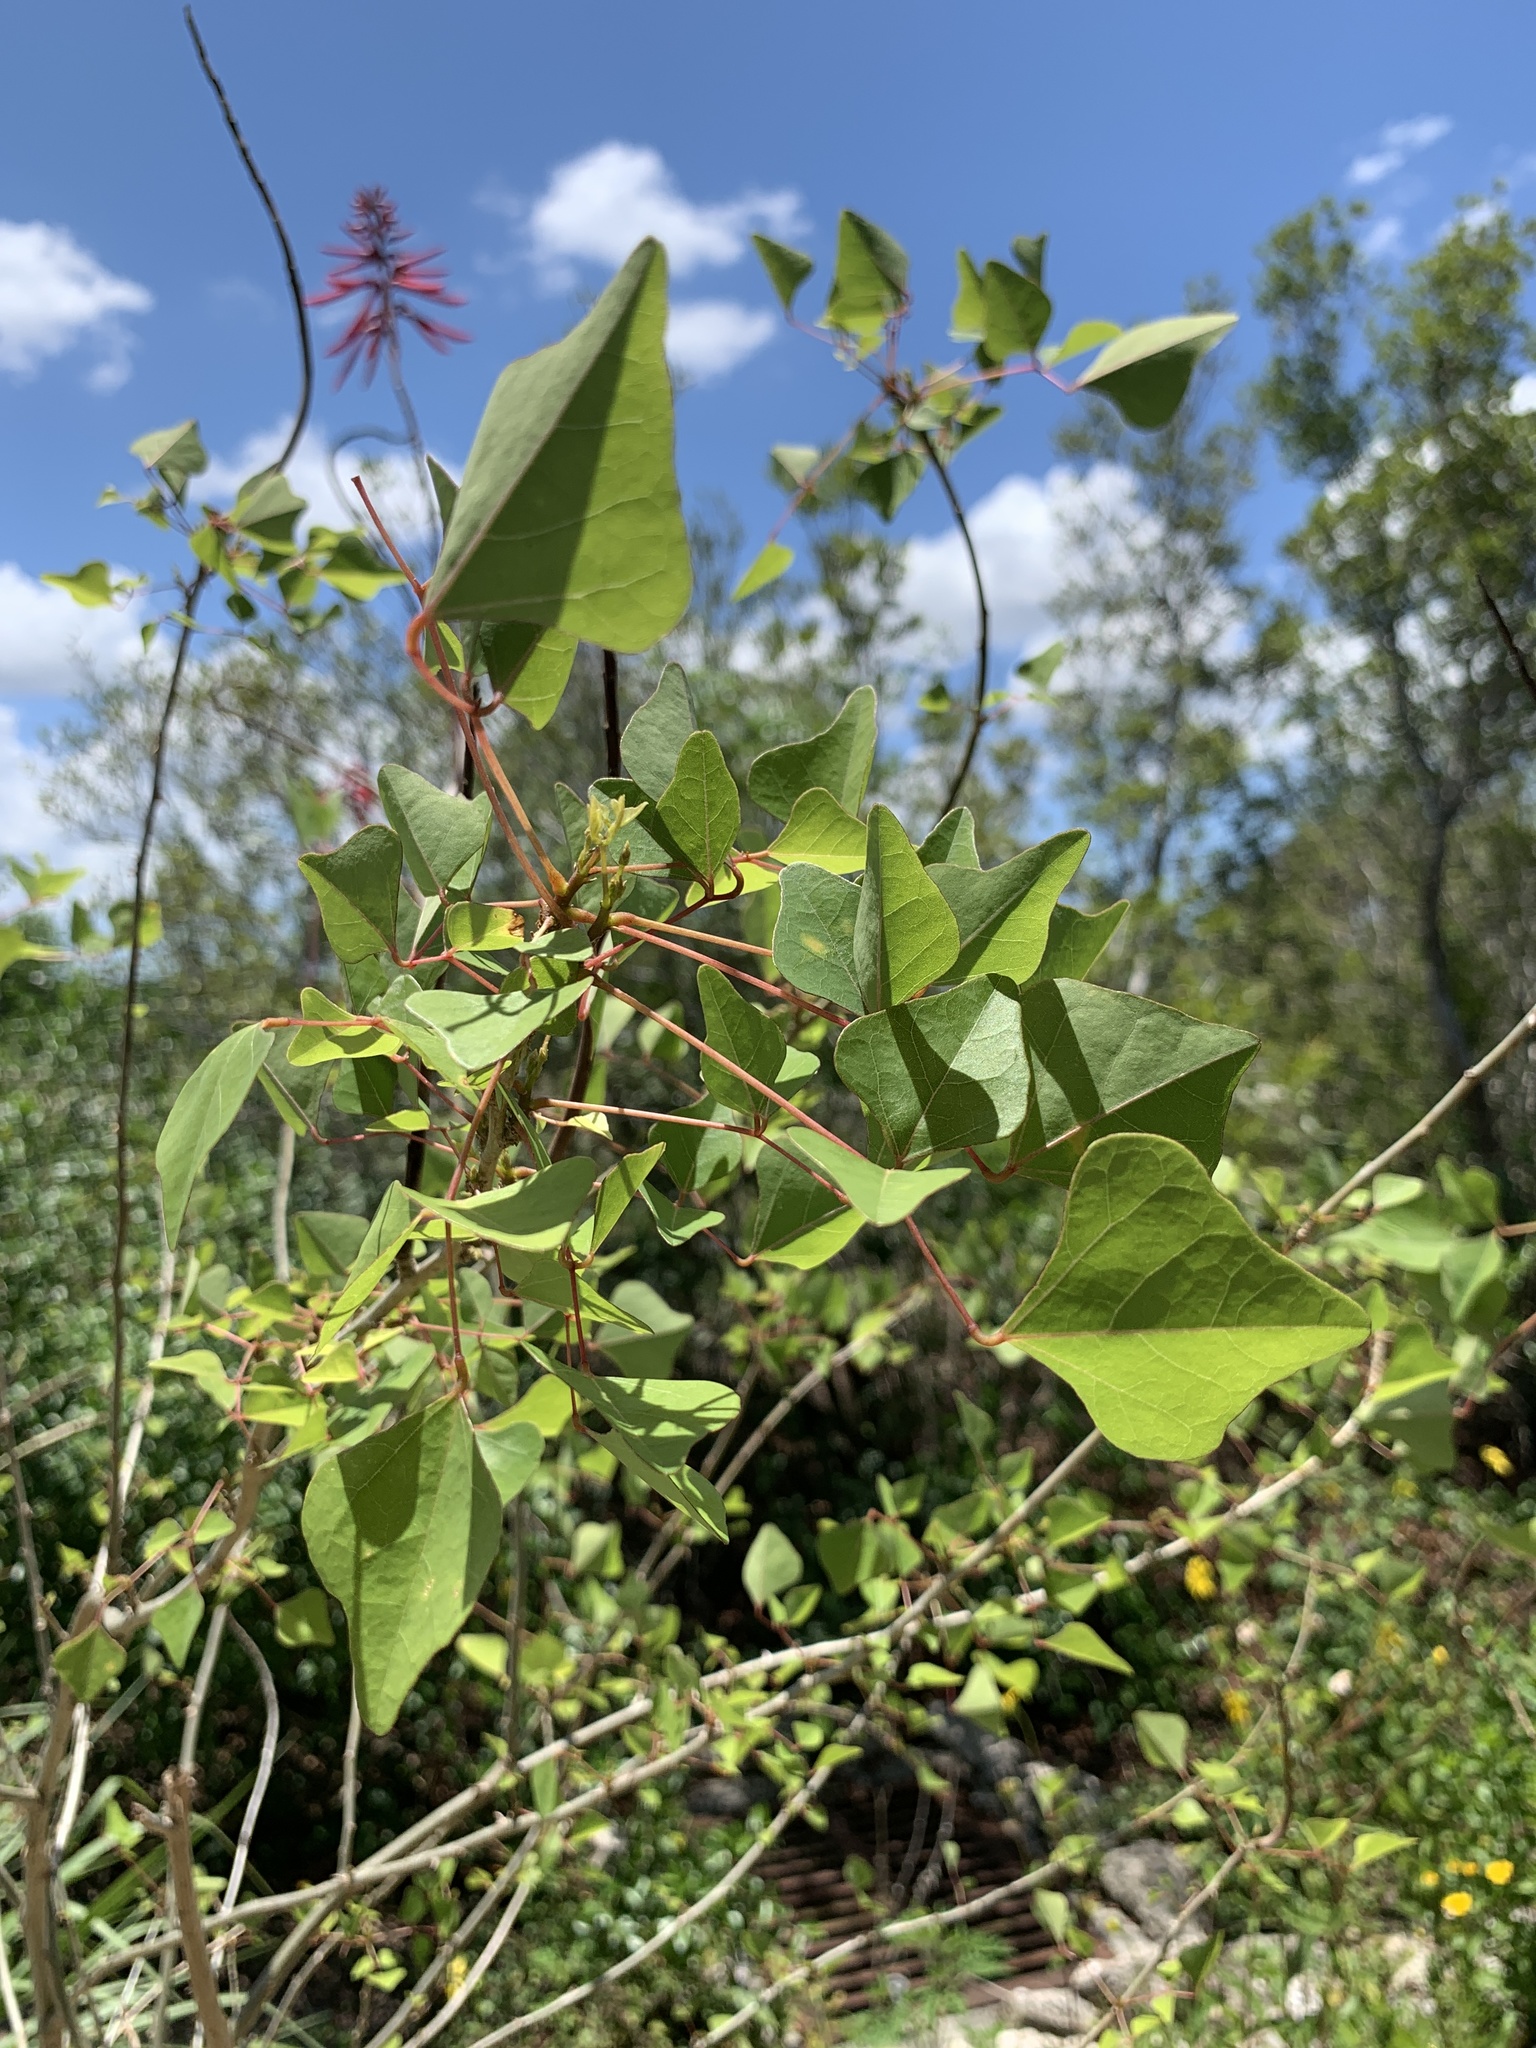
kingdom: Plantae
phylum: Tracheophyta
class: Magnoliopsida
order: Fabales
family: Fabaceae
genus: Erythrina
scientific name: Erythrina herbacea
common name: Coral-bean
